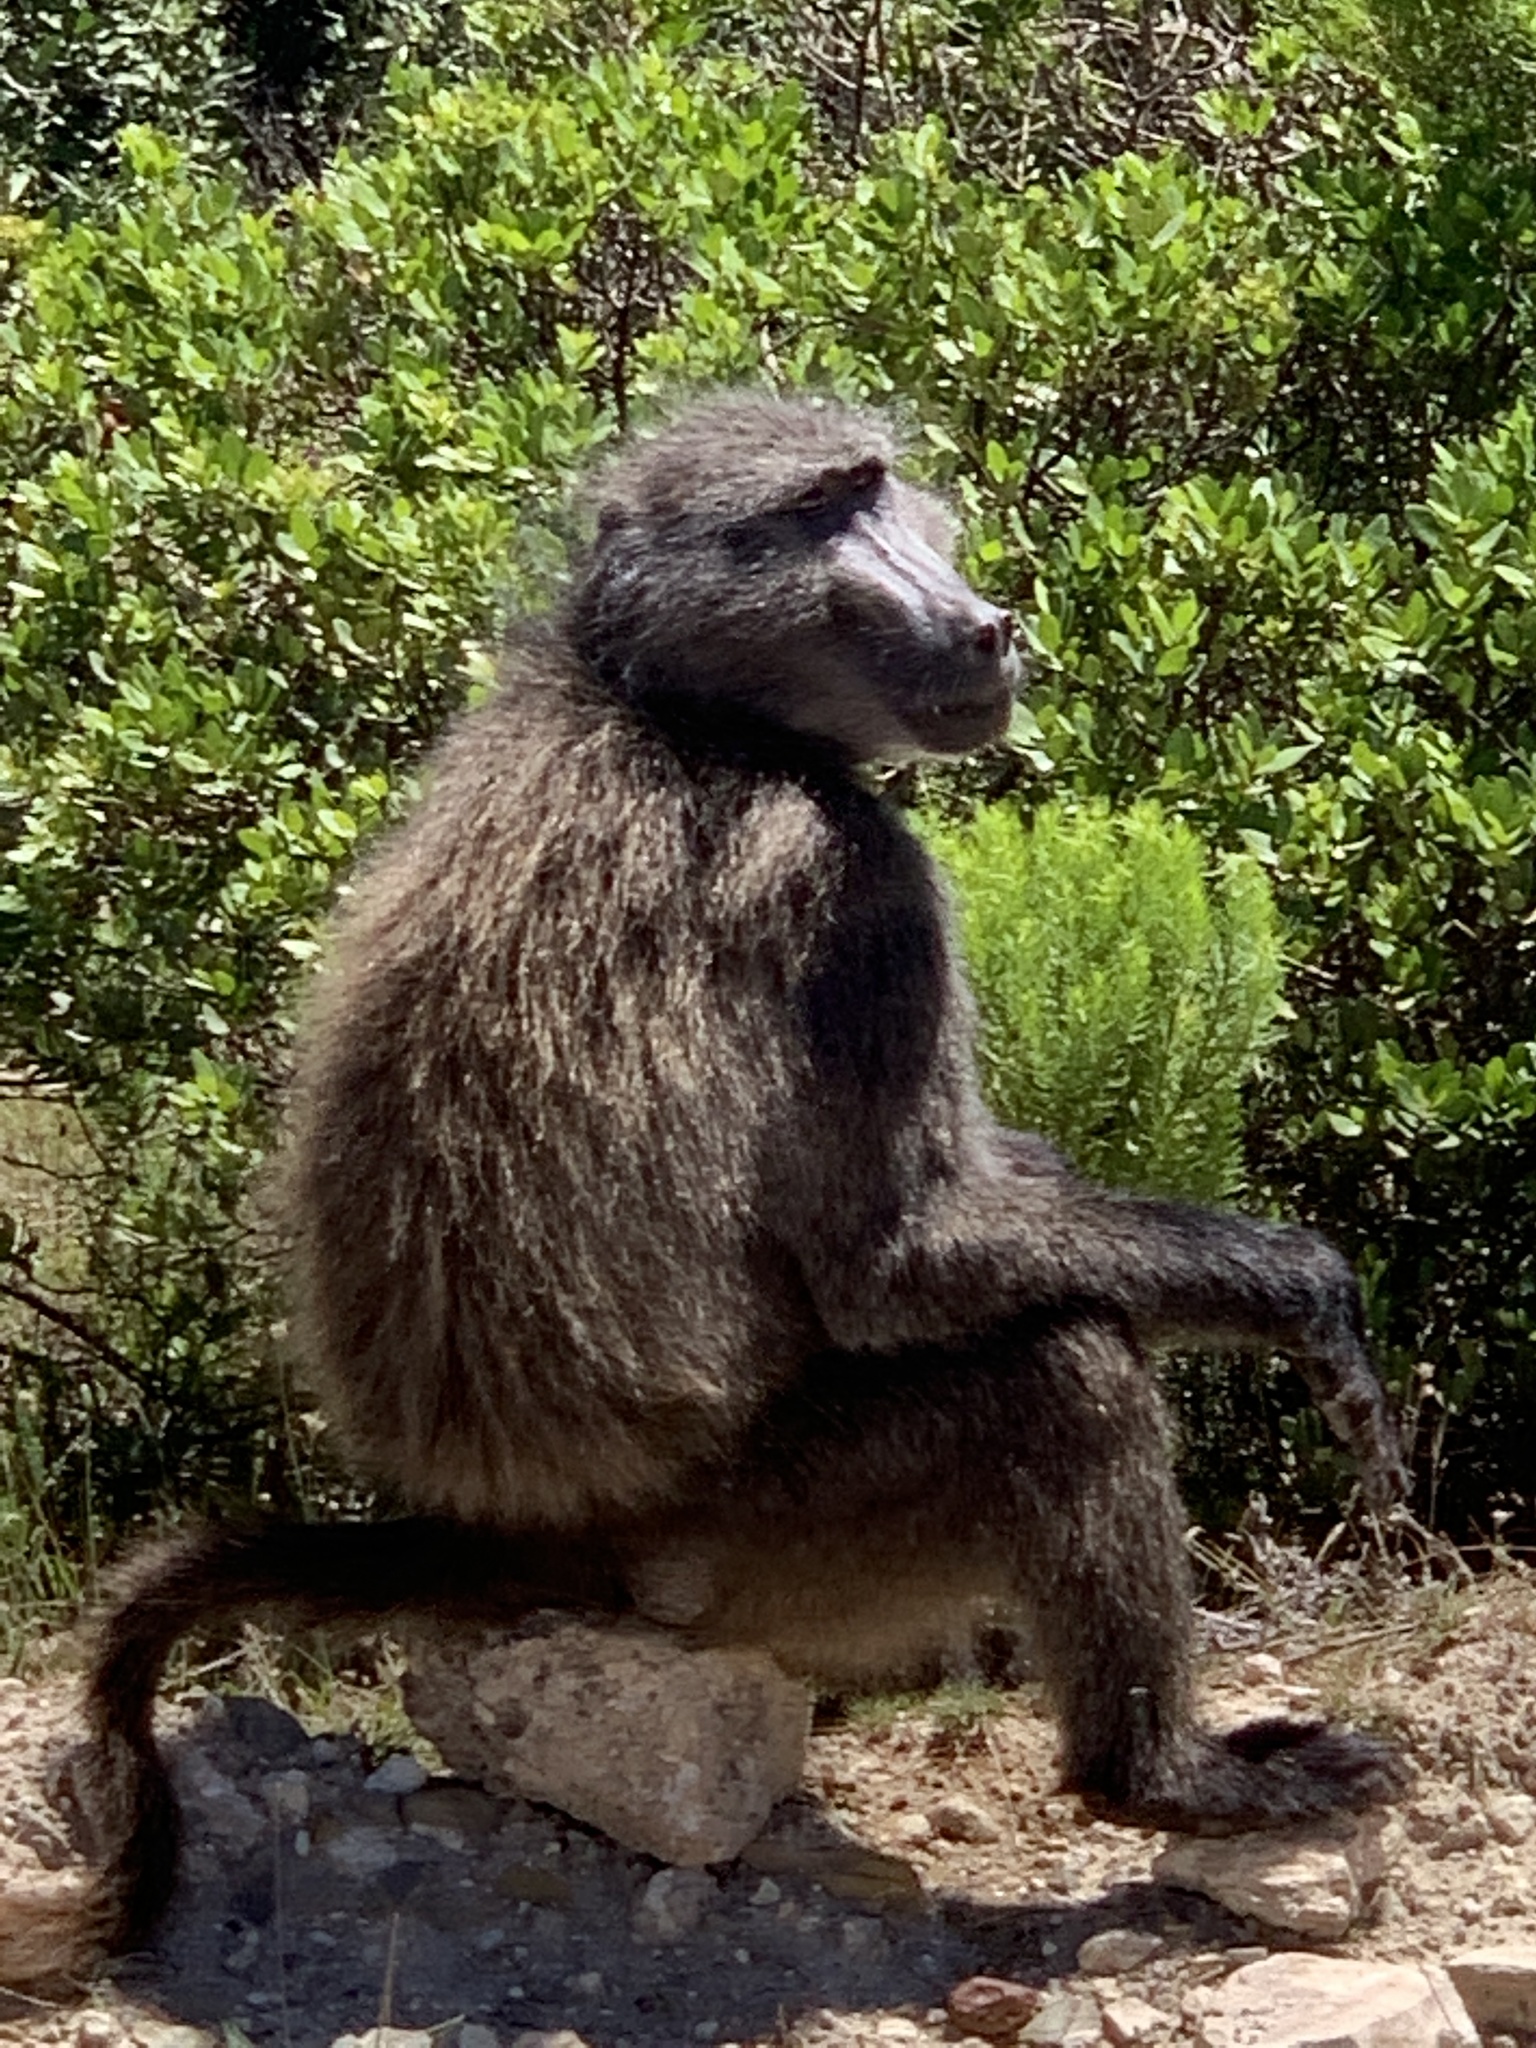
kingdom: Animalia
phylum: Chordata
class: Mammalia
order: Primates
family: Cercopithecidae
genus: Papio
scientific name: Papio ursinus
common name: Chacma baboon
